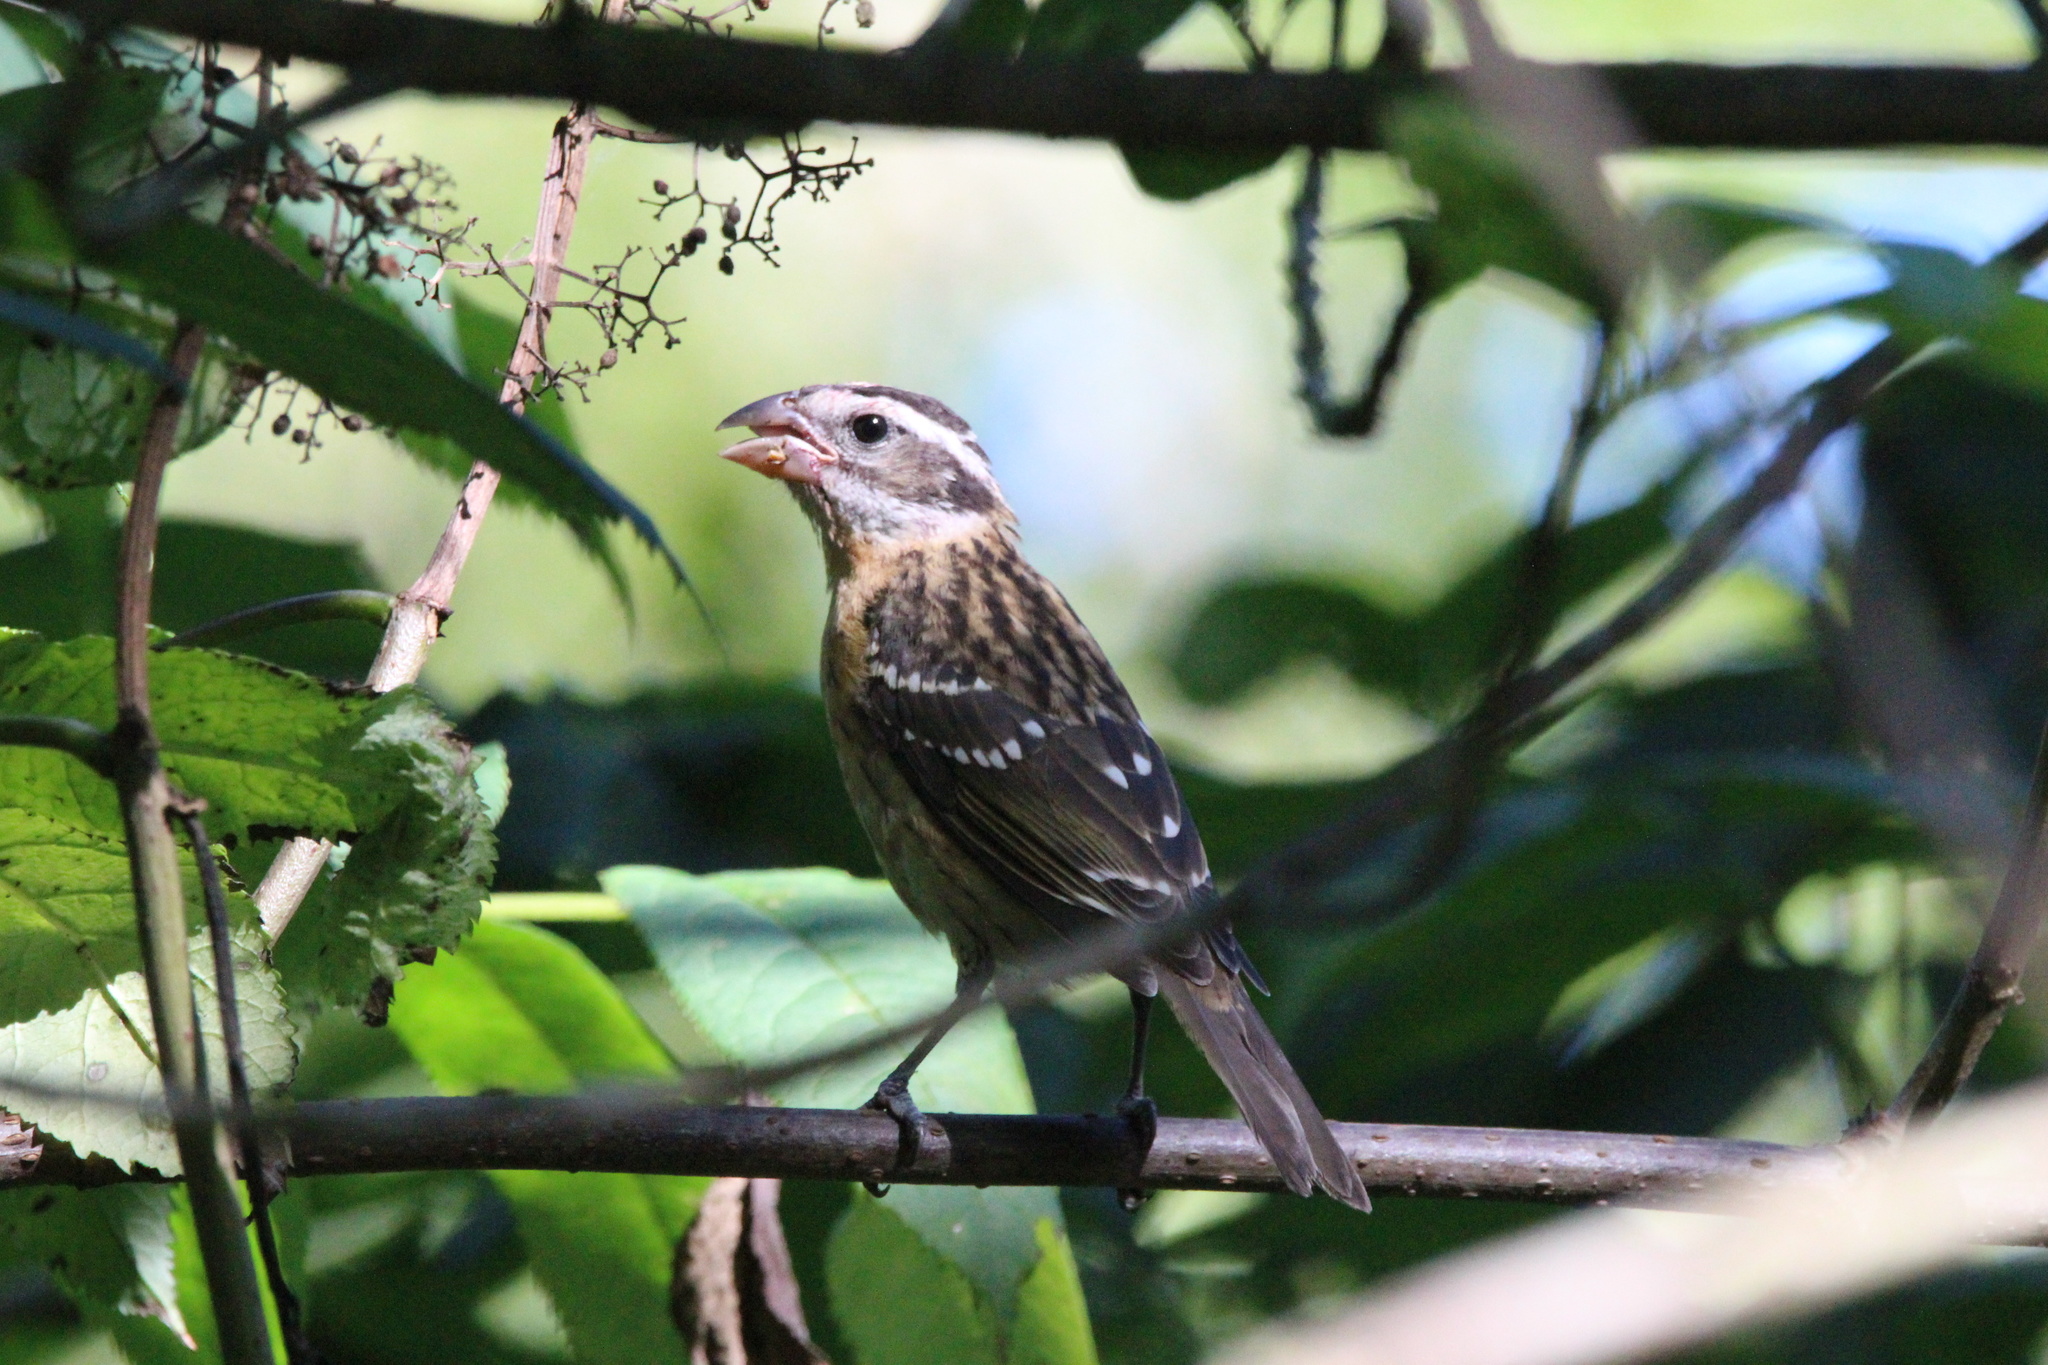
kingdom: Animalia
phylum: Chordata
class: Aves
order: Passeriformes
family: Cardinalidae
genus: Pheucticus
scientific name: Pheucticus melanocephalus
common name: Black-headed grosbeak
